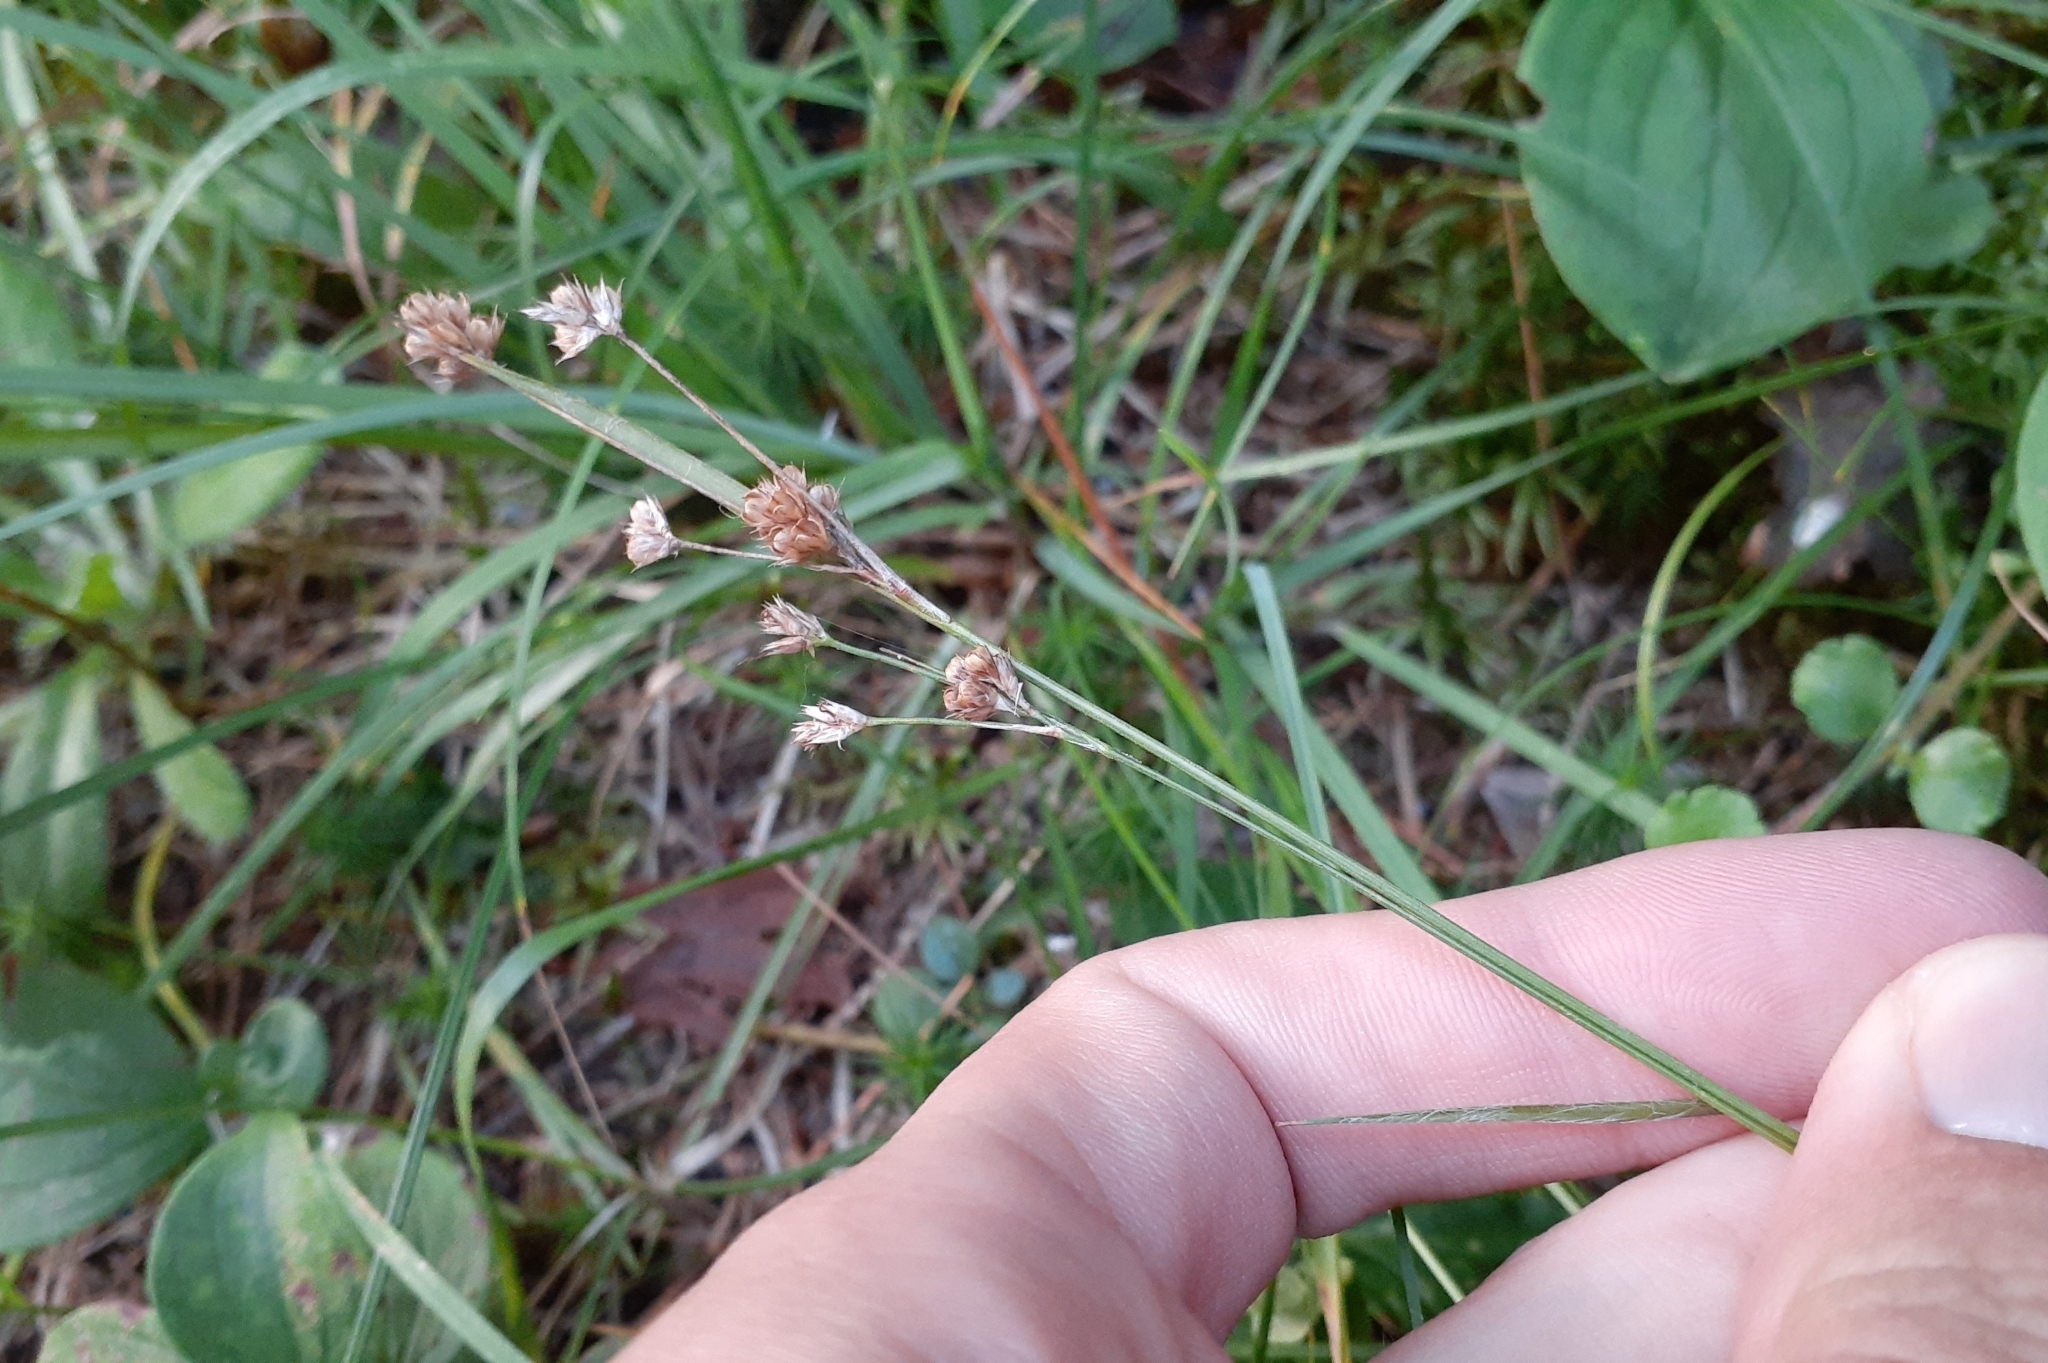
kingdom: Plantae
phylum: Tracheophyta
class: Liliopsida
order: Poales
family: Juncaceae
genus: Luzula
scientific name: Luzula multiflora
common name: Heath wood-rush
